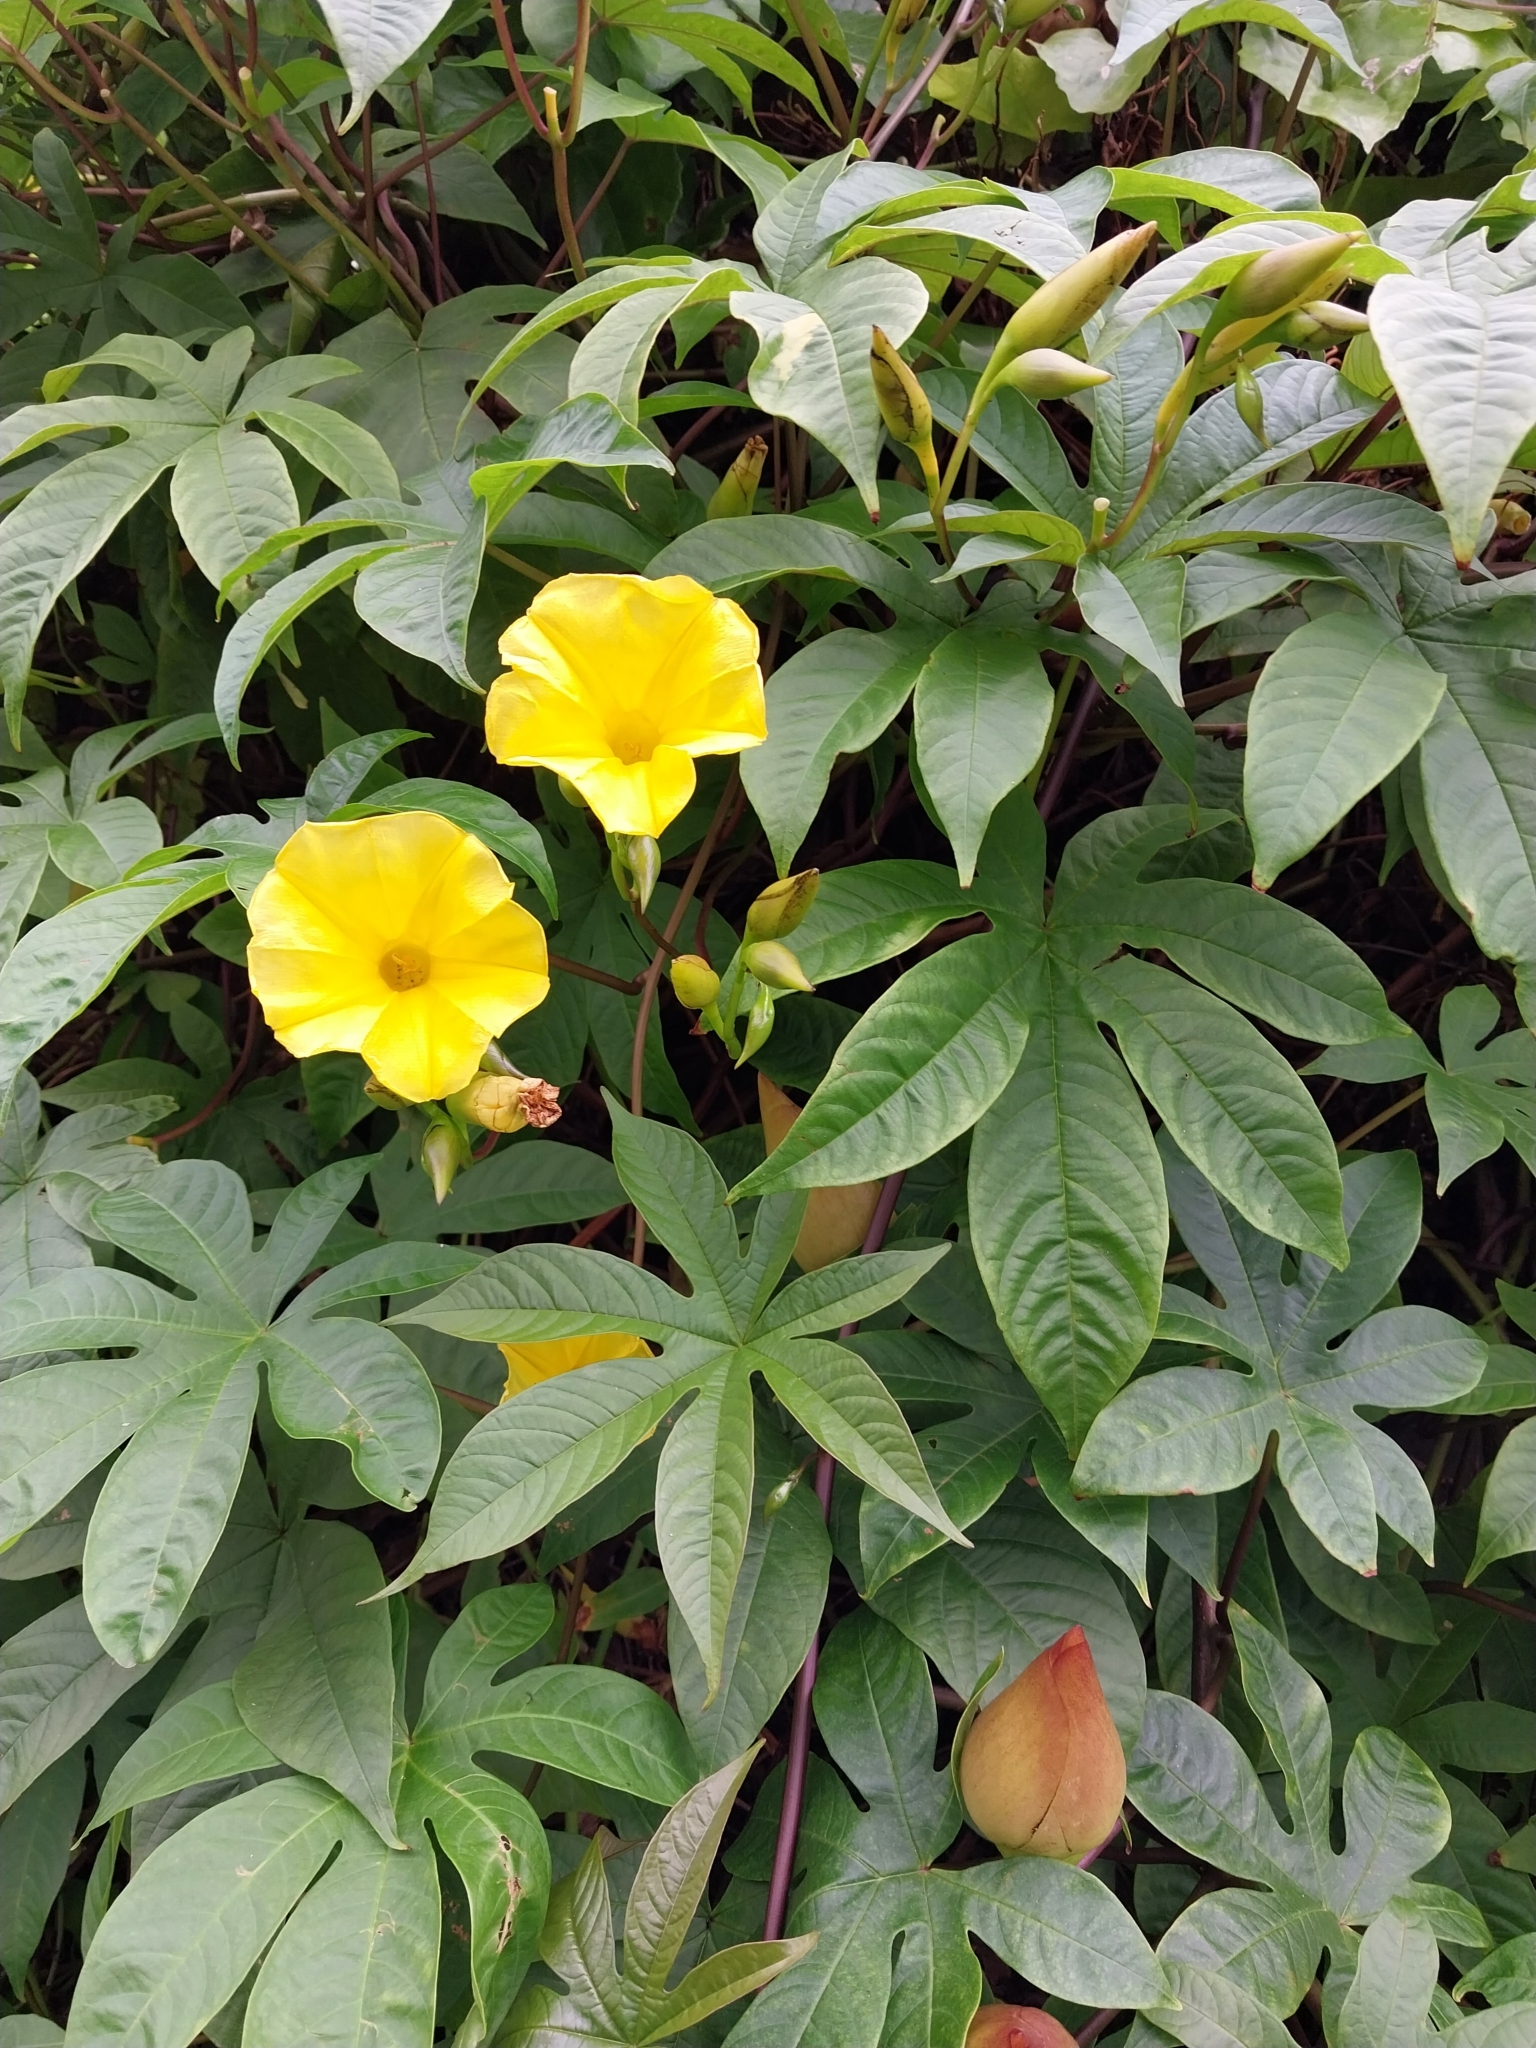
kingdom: Plantae
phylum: Tracheophyta
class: Magnoliopsida
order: Solanales
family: Convolvulaceae
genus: Distimake
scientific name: Distimake tuberosus
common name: Spanish arborvine
